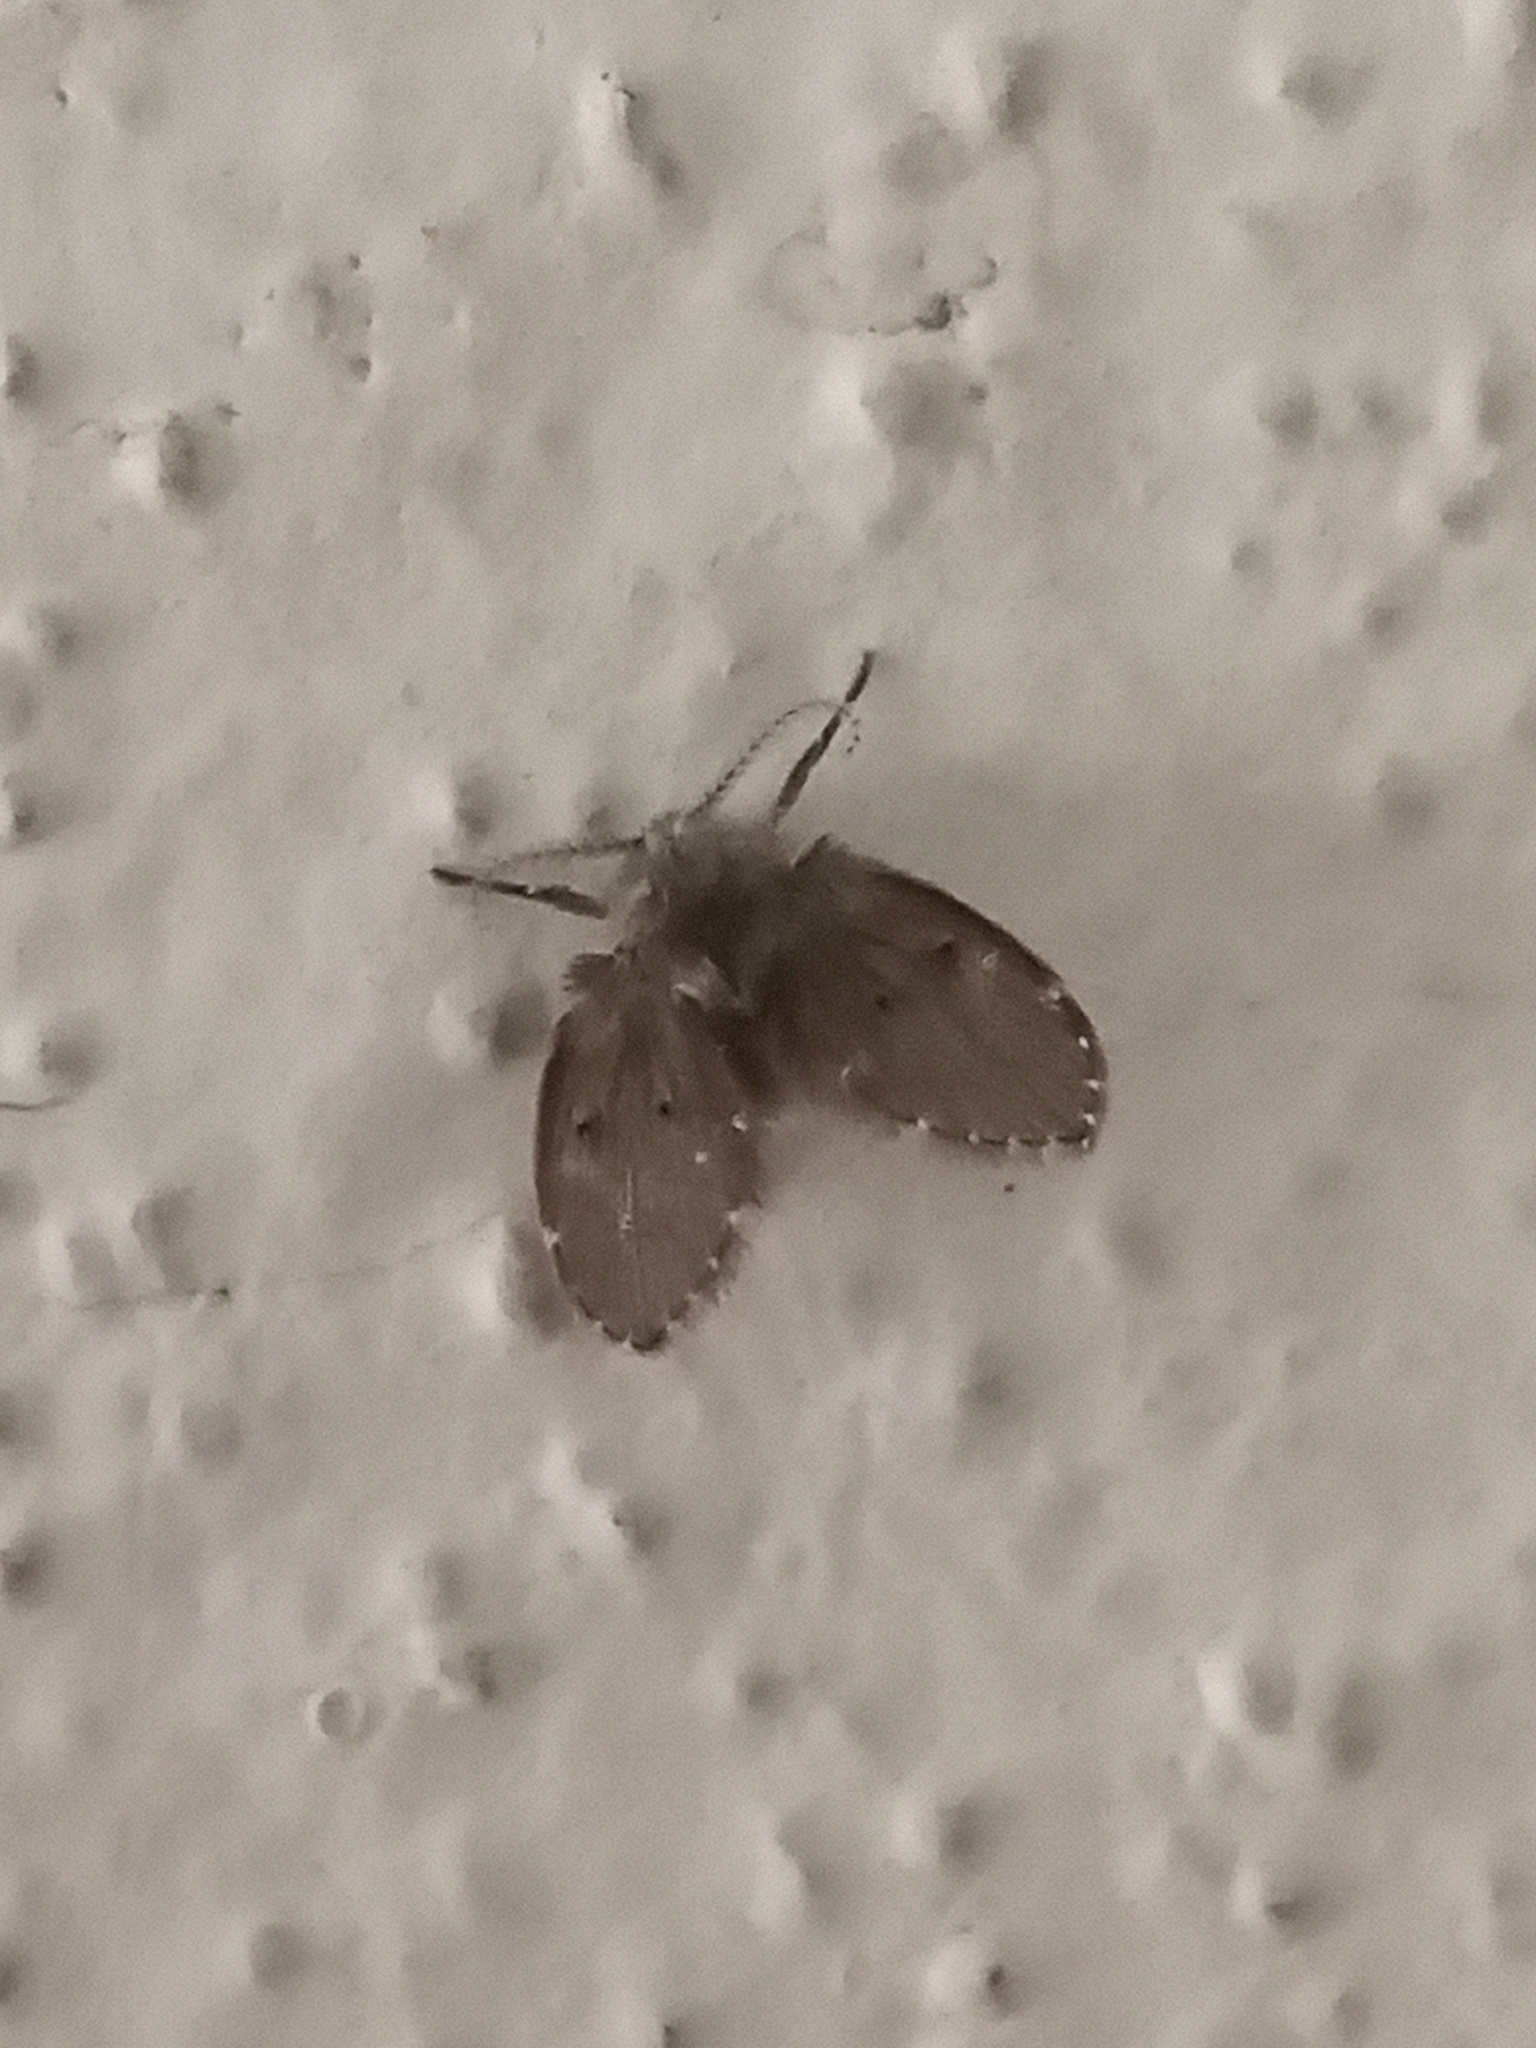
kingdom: Animalia
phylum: Arthropoda
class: Insecta
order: Diptera
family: Psychodidae
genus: Clogmia
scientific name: Clogmia albipunctatus
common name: White-spotted moth fly
